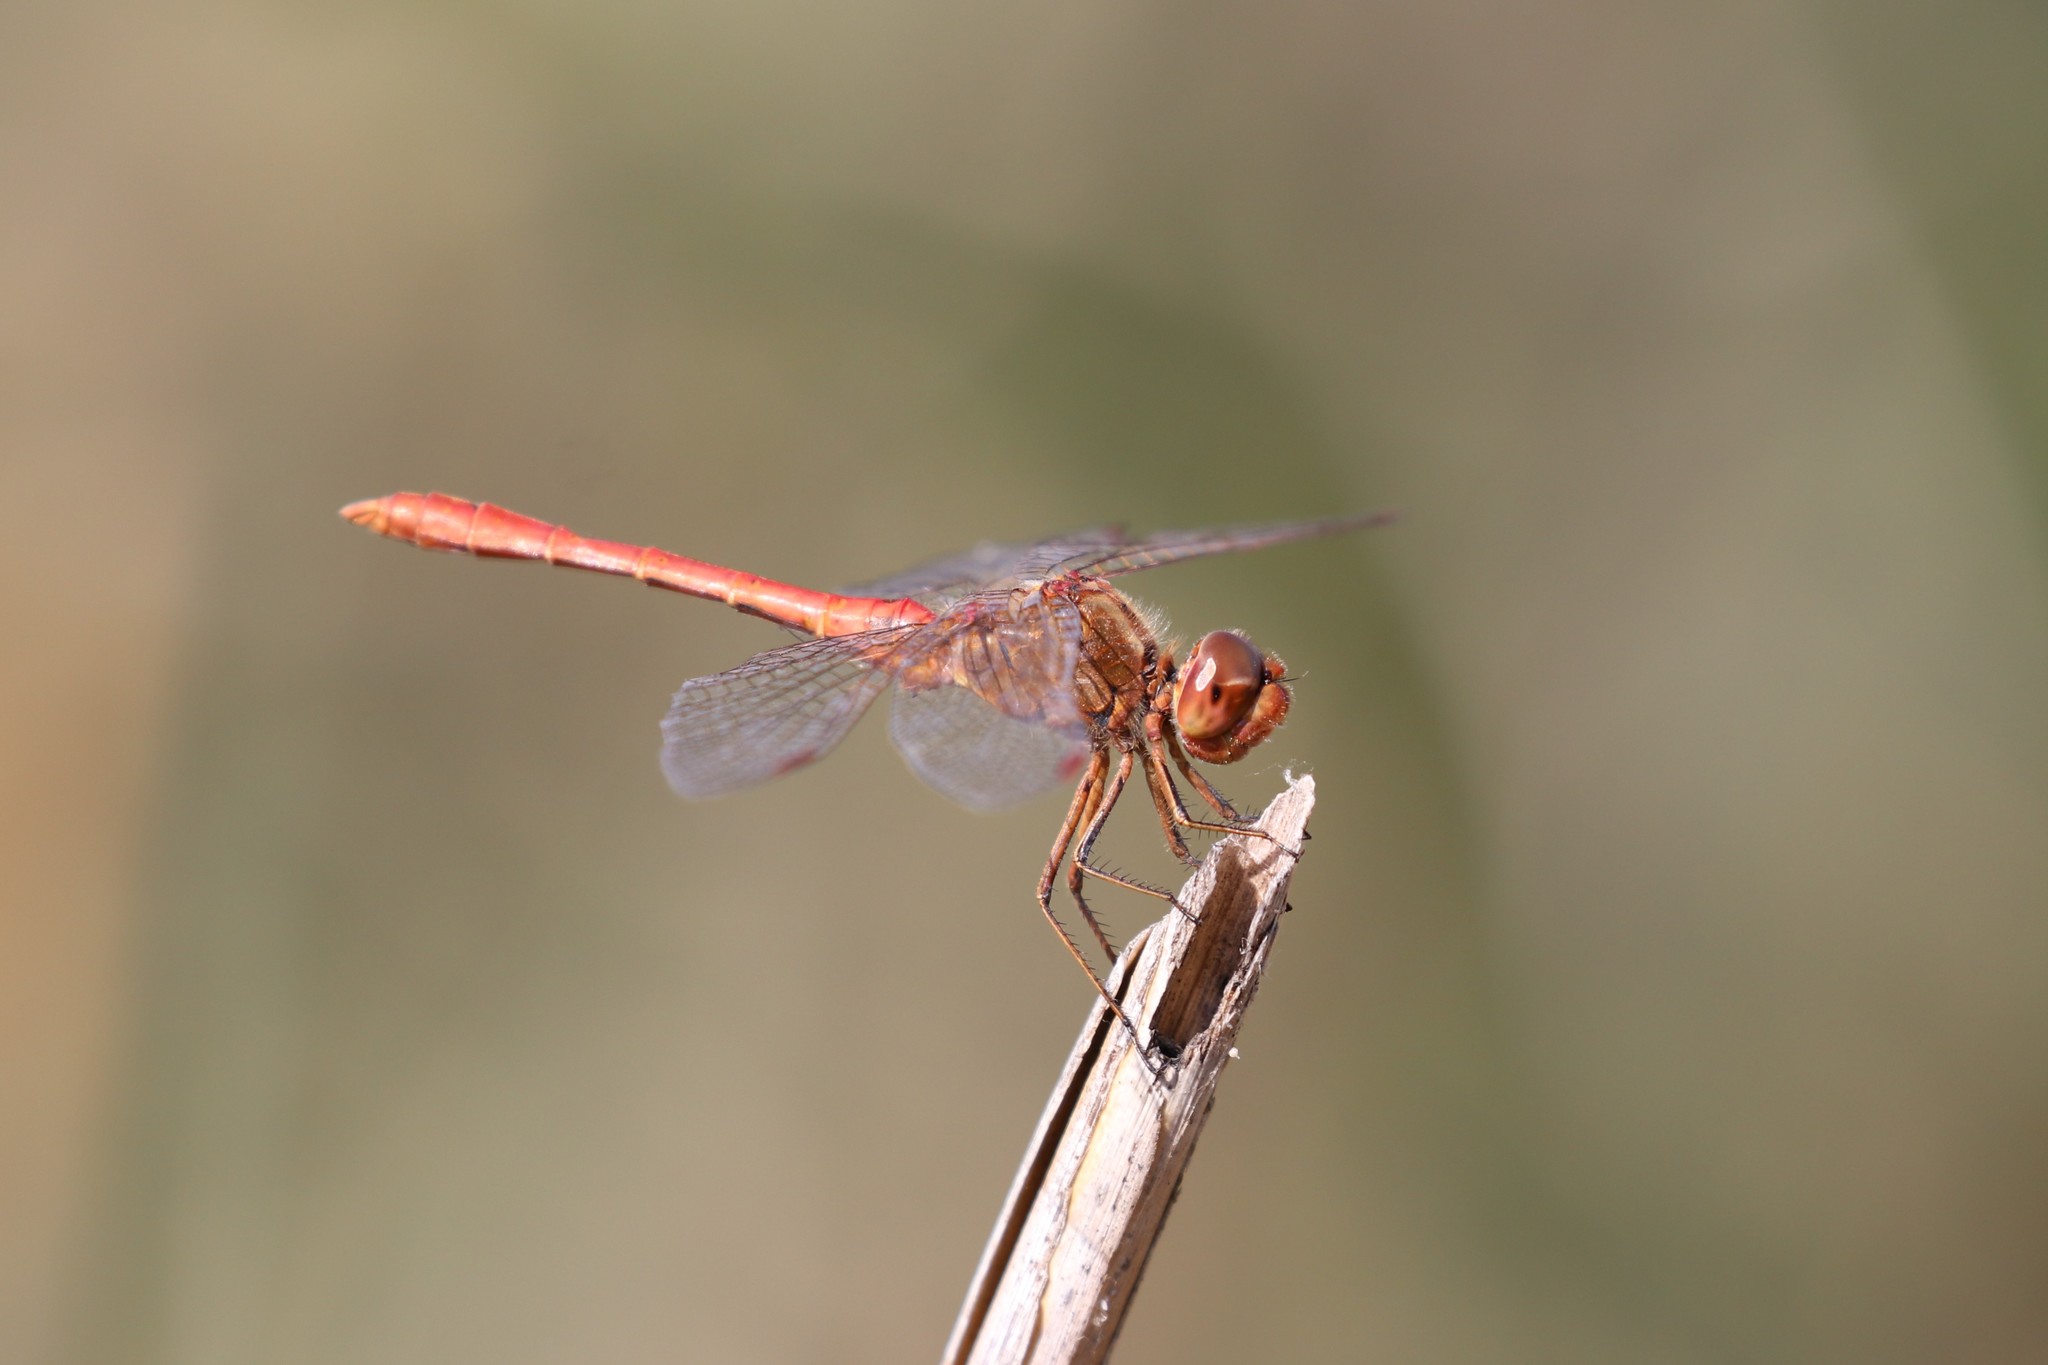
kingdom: Animalia
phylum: Arthropoda
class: Insecta
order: Odonata
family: Libellulidae
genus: Sympetrum
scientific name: Sympetrum meridionale
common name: Southern darter
